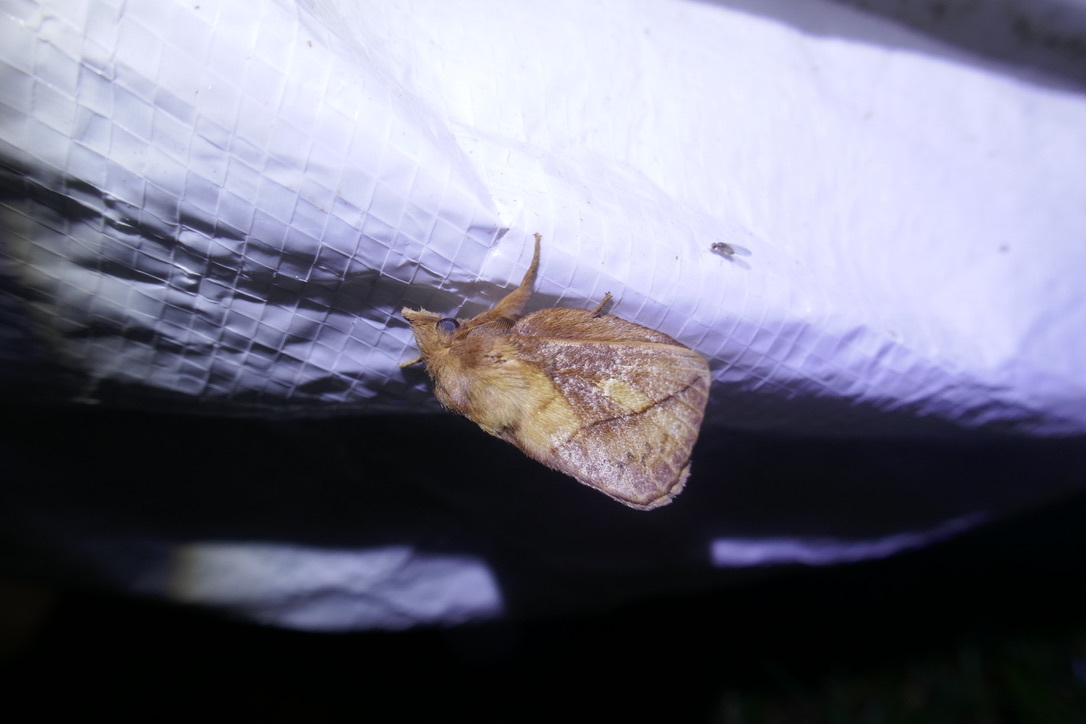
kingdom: Animalia
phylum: Arthropoda
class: Insecta
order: Lepidoptera
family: Lasiocampidae
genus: Euthrix
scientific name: Euthrix potatoria
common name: Drinker
